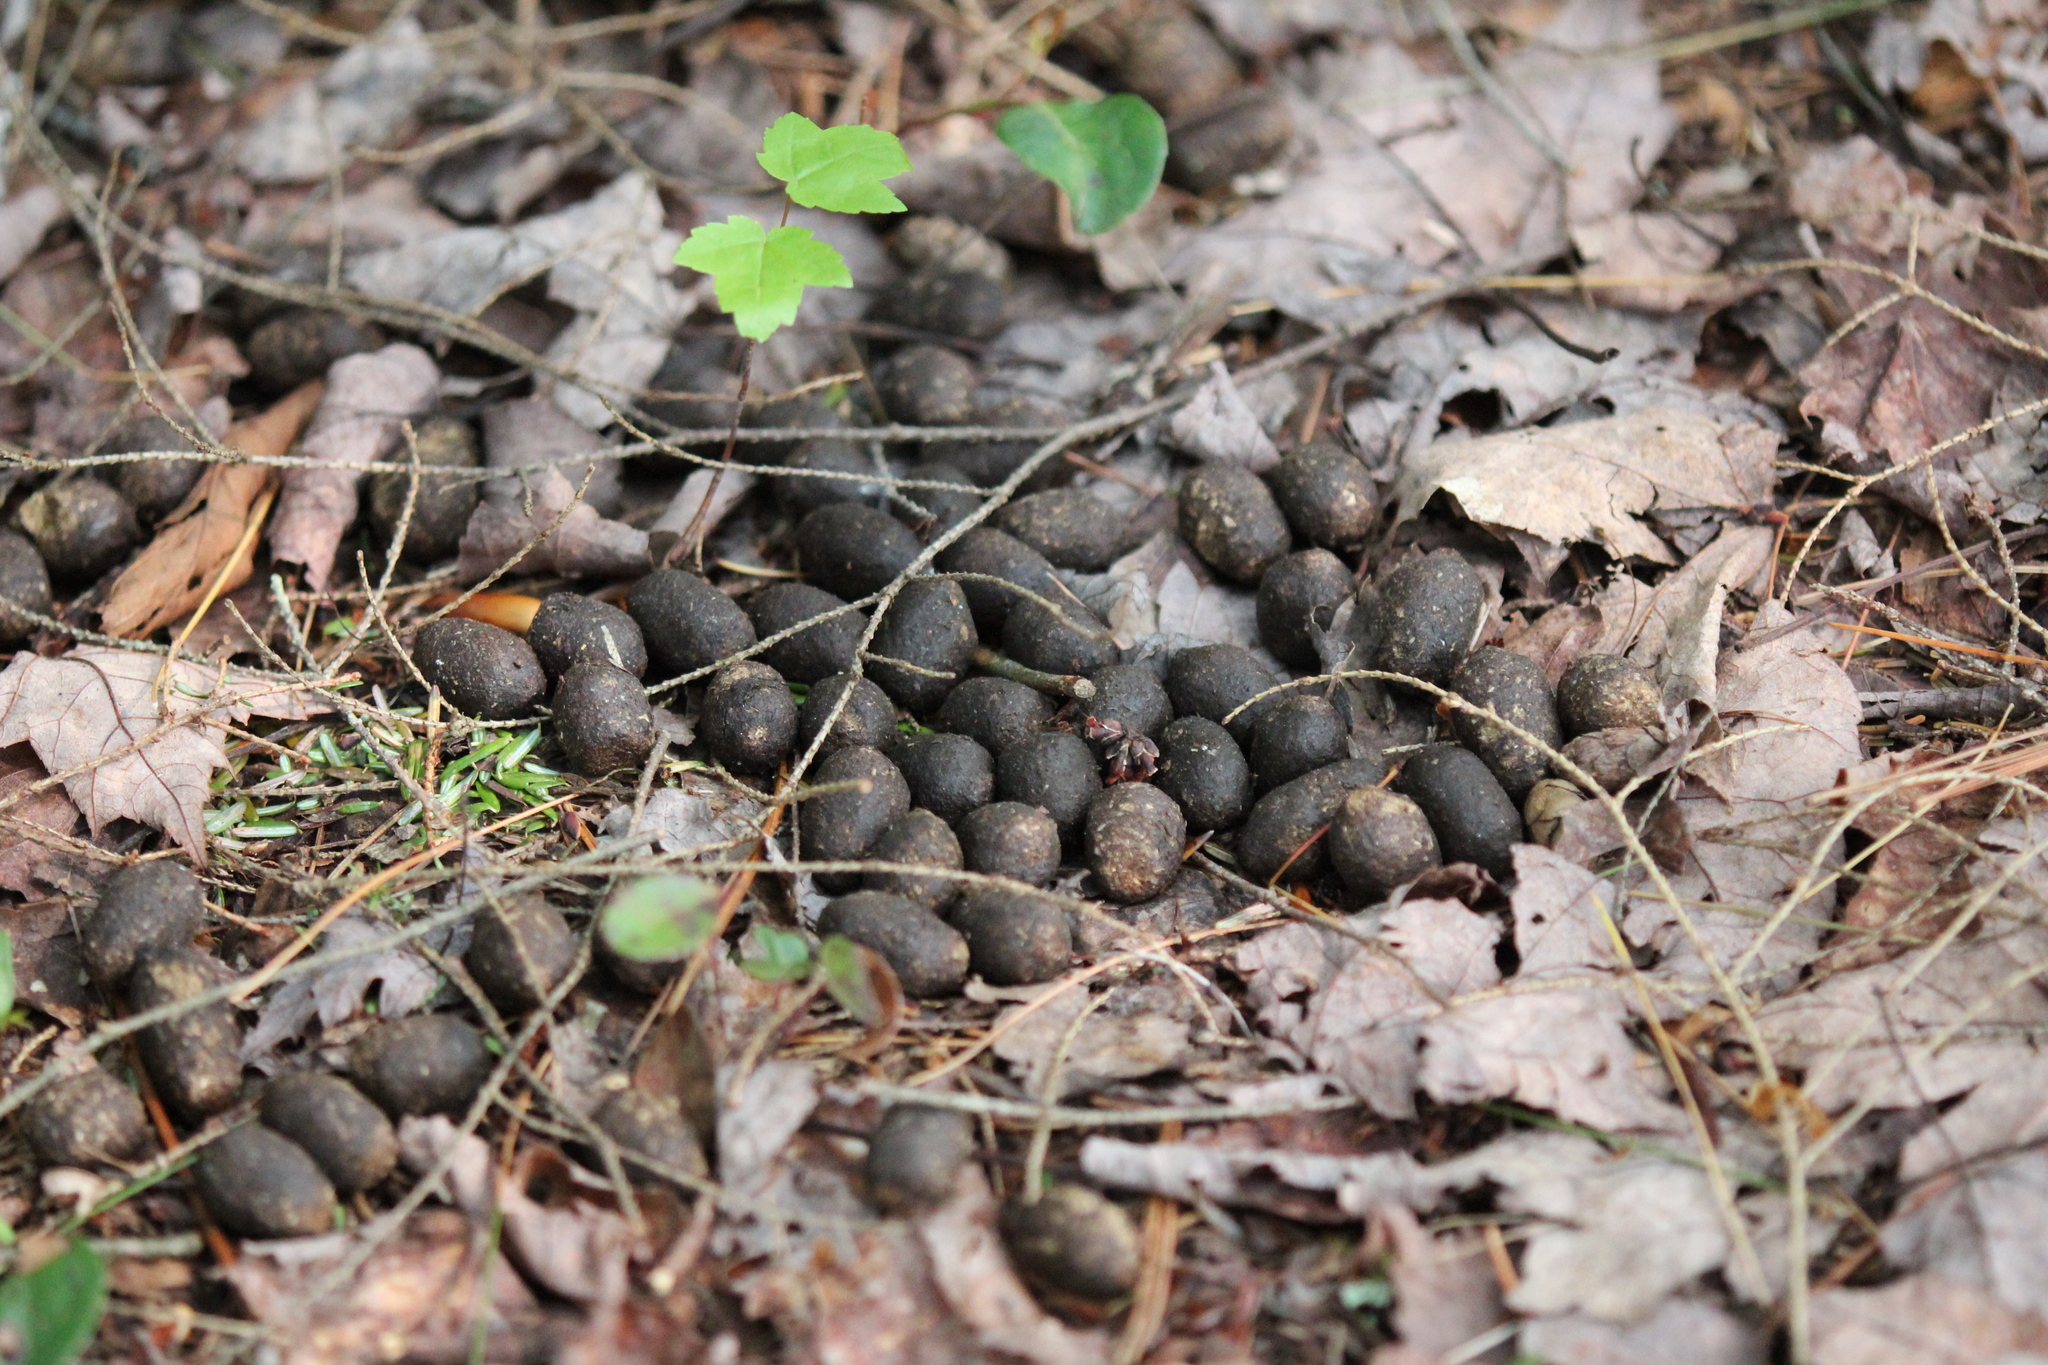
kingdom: Animalia
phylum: Chordata
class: Mammalia
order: Artiodactyla
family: Cervidae
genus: Odocoileus
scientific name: Odocoileus virginianus
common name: White-tailed deer
